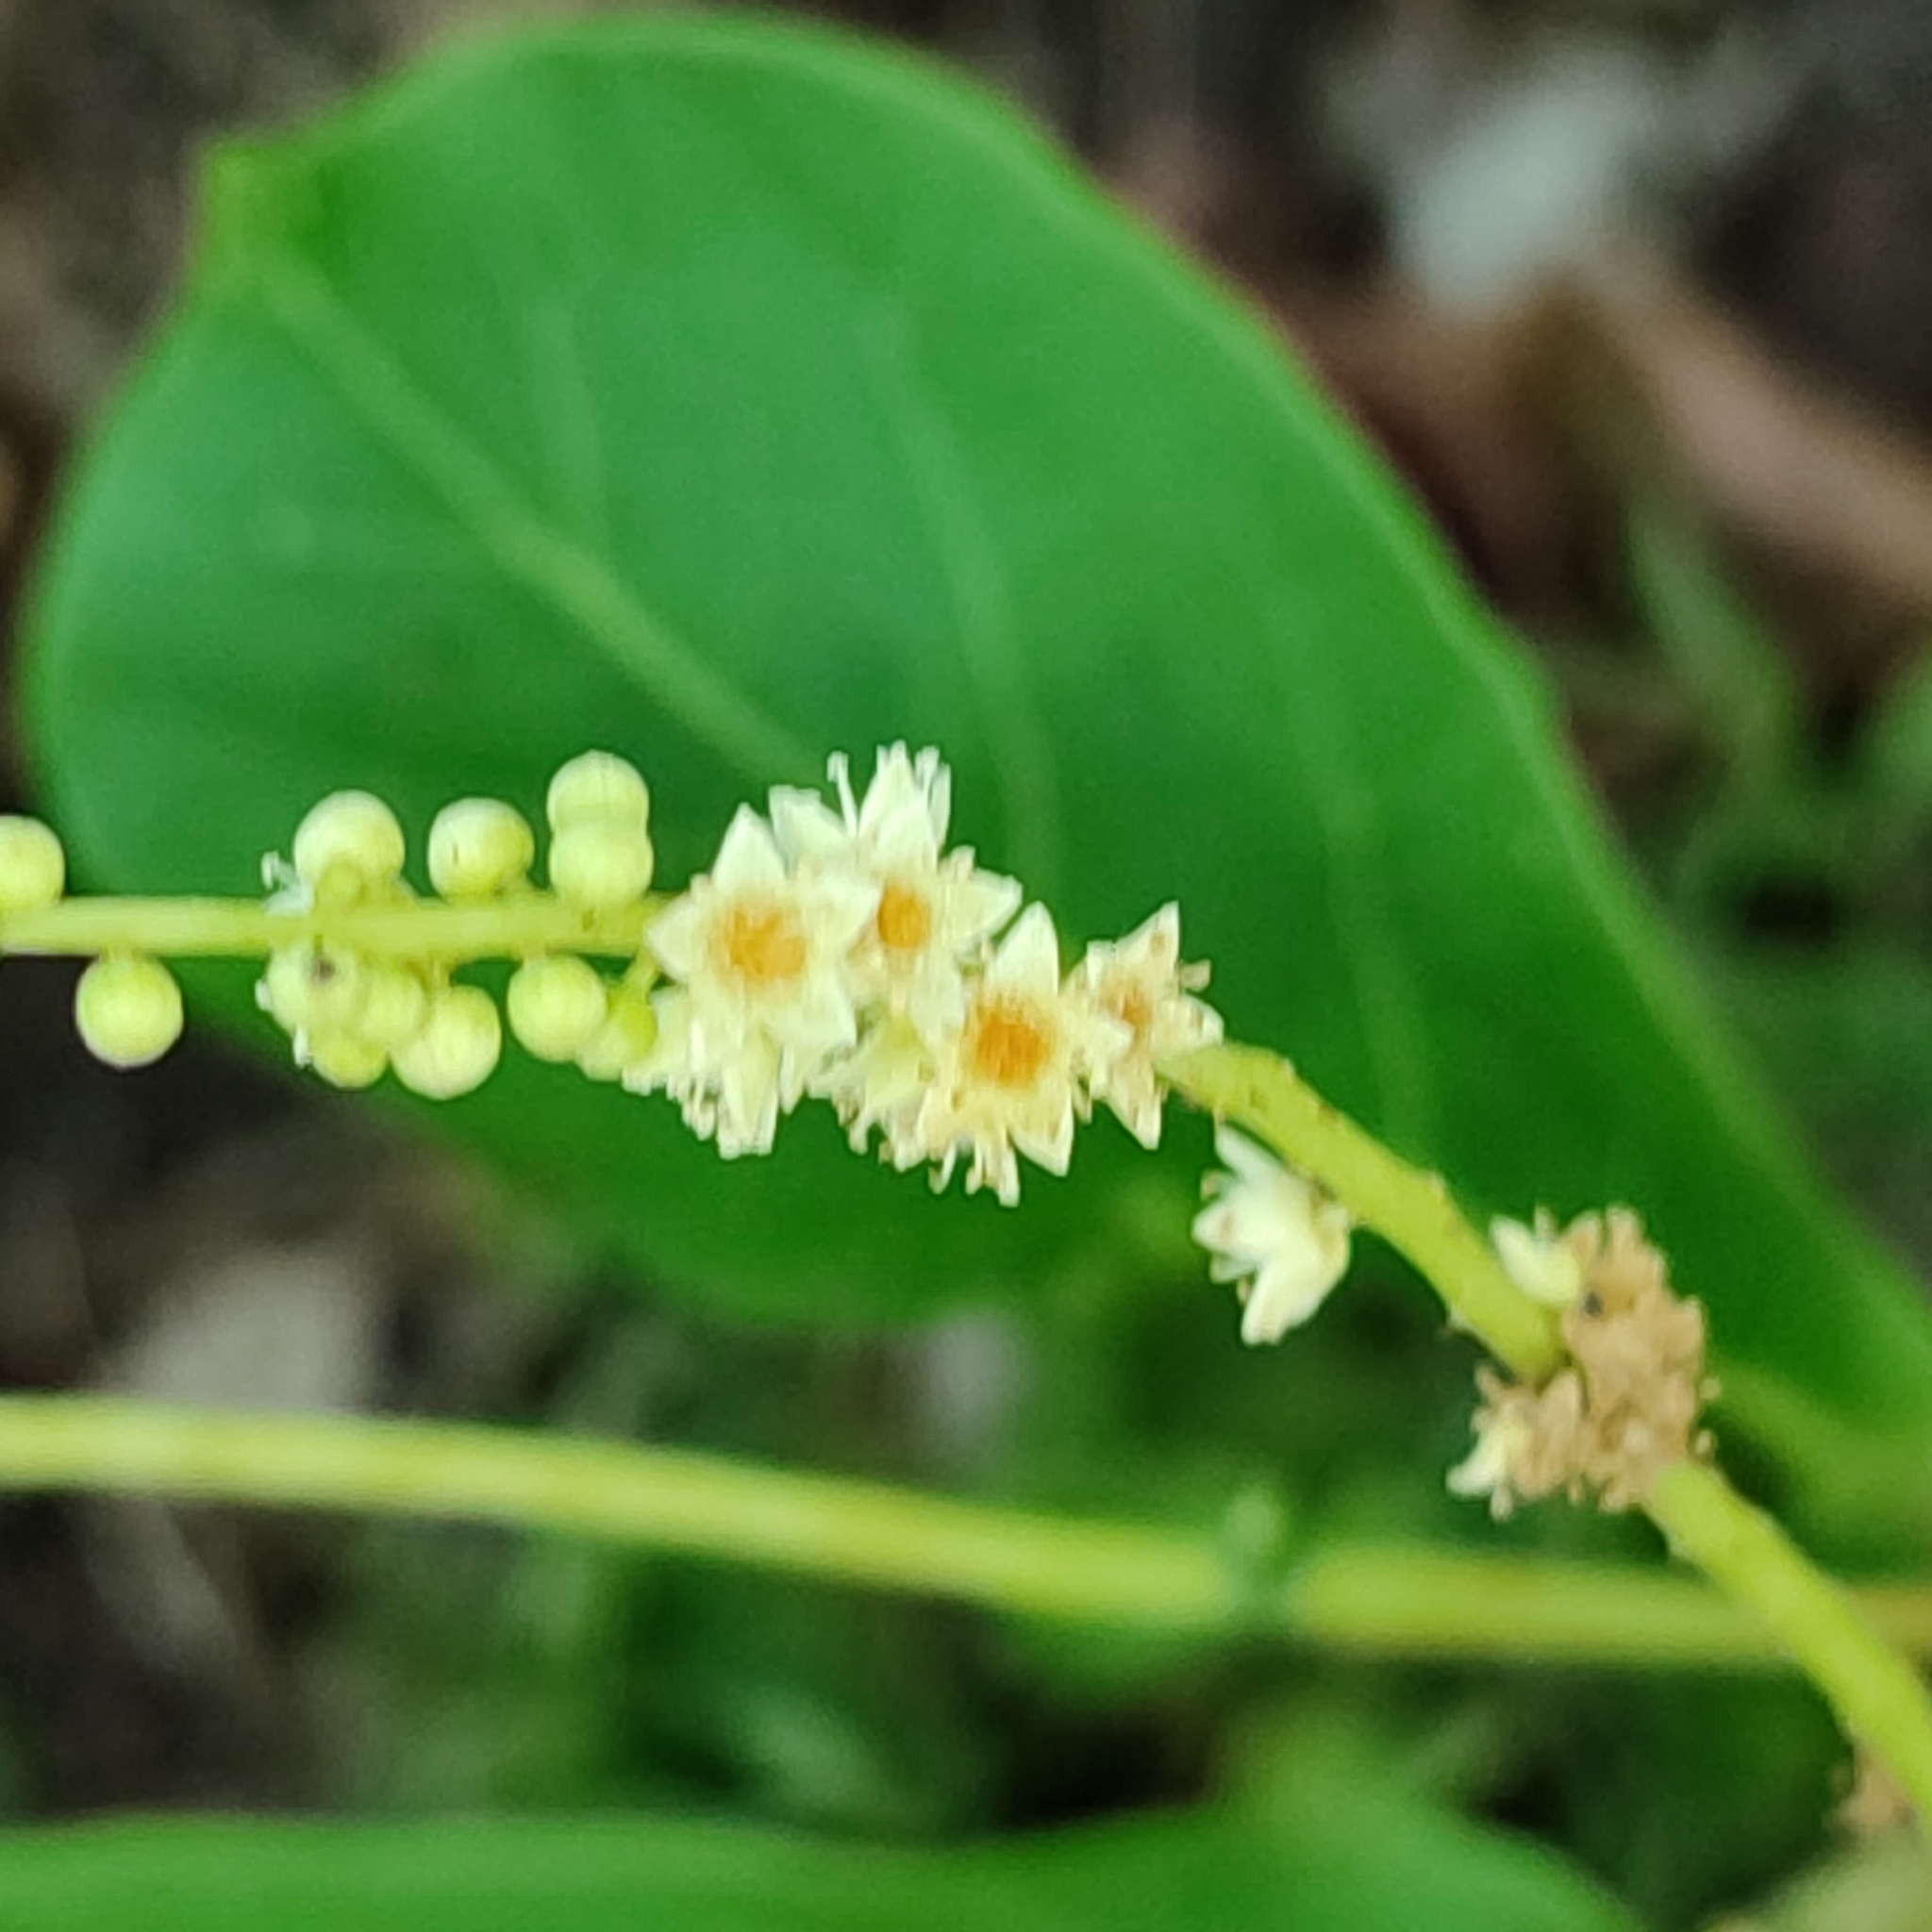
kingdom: Plantae
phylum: Tracheophyta
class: Magnoliopsida
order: Myrtales
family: Combretaceae
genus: Terminalia
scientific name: Terminalia catappa
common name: Tropical almond
